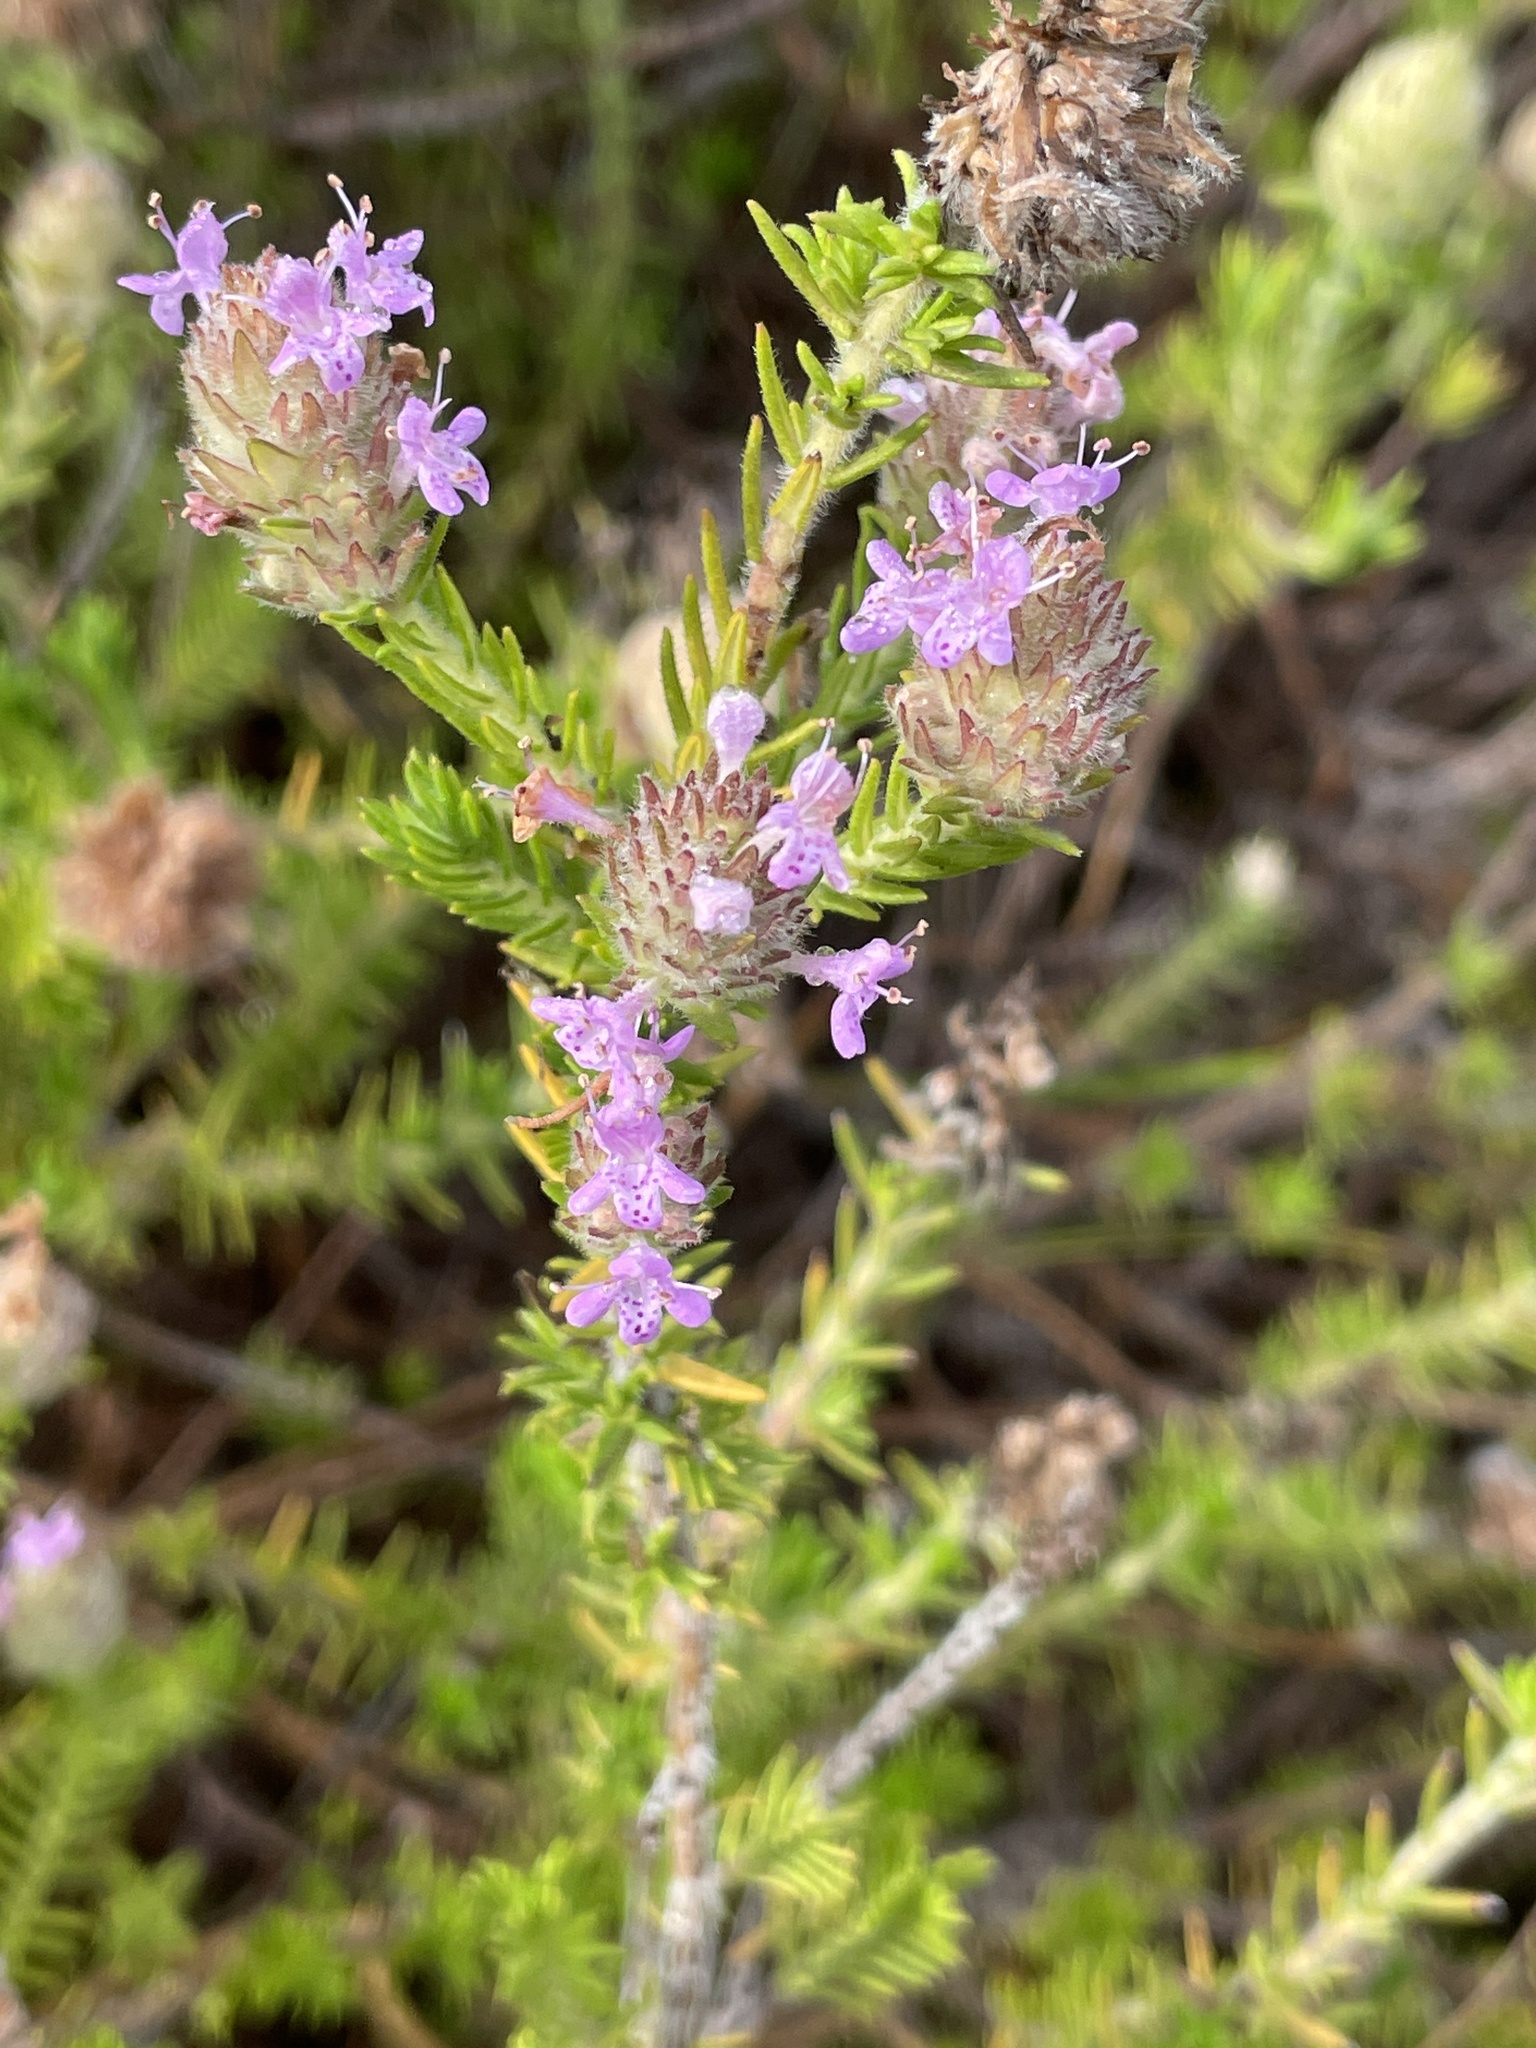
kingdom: Plantae
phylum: Tracheophyta
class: Magnoliopsida
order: Lamiales
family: Lamiaceae
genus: Piloblephis
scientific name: Piloblephis rigida
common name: Wild pennyroyal
